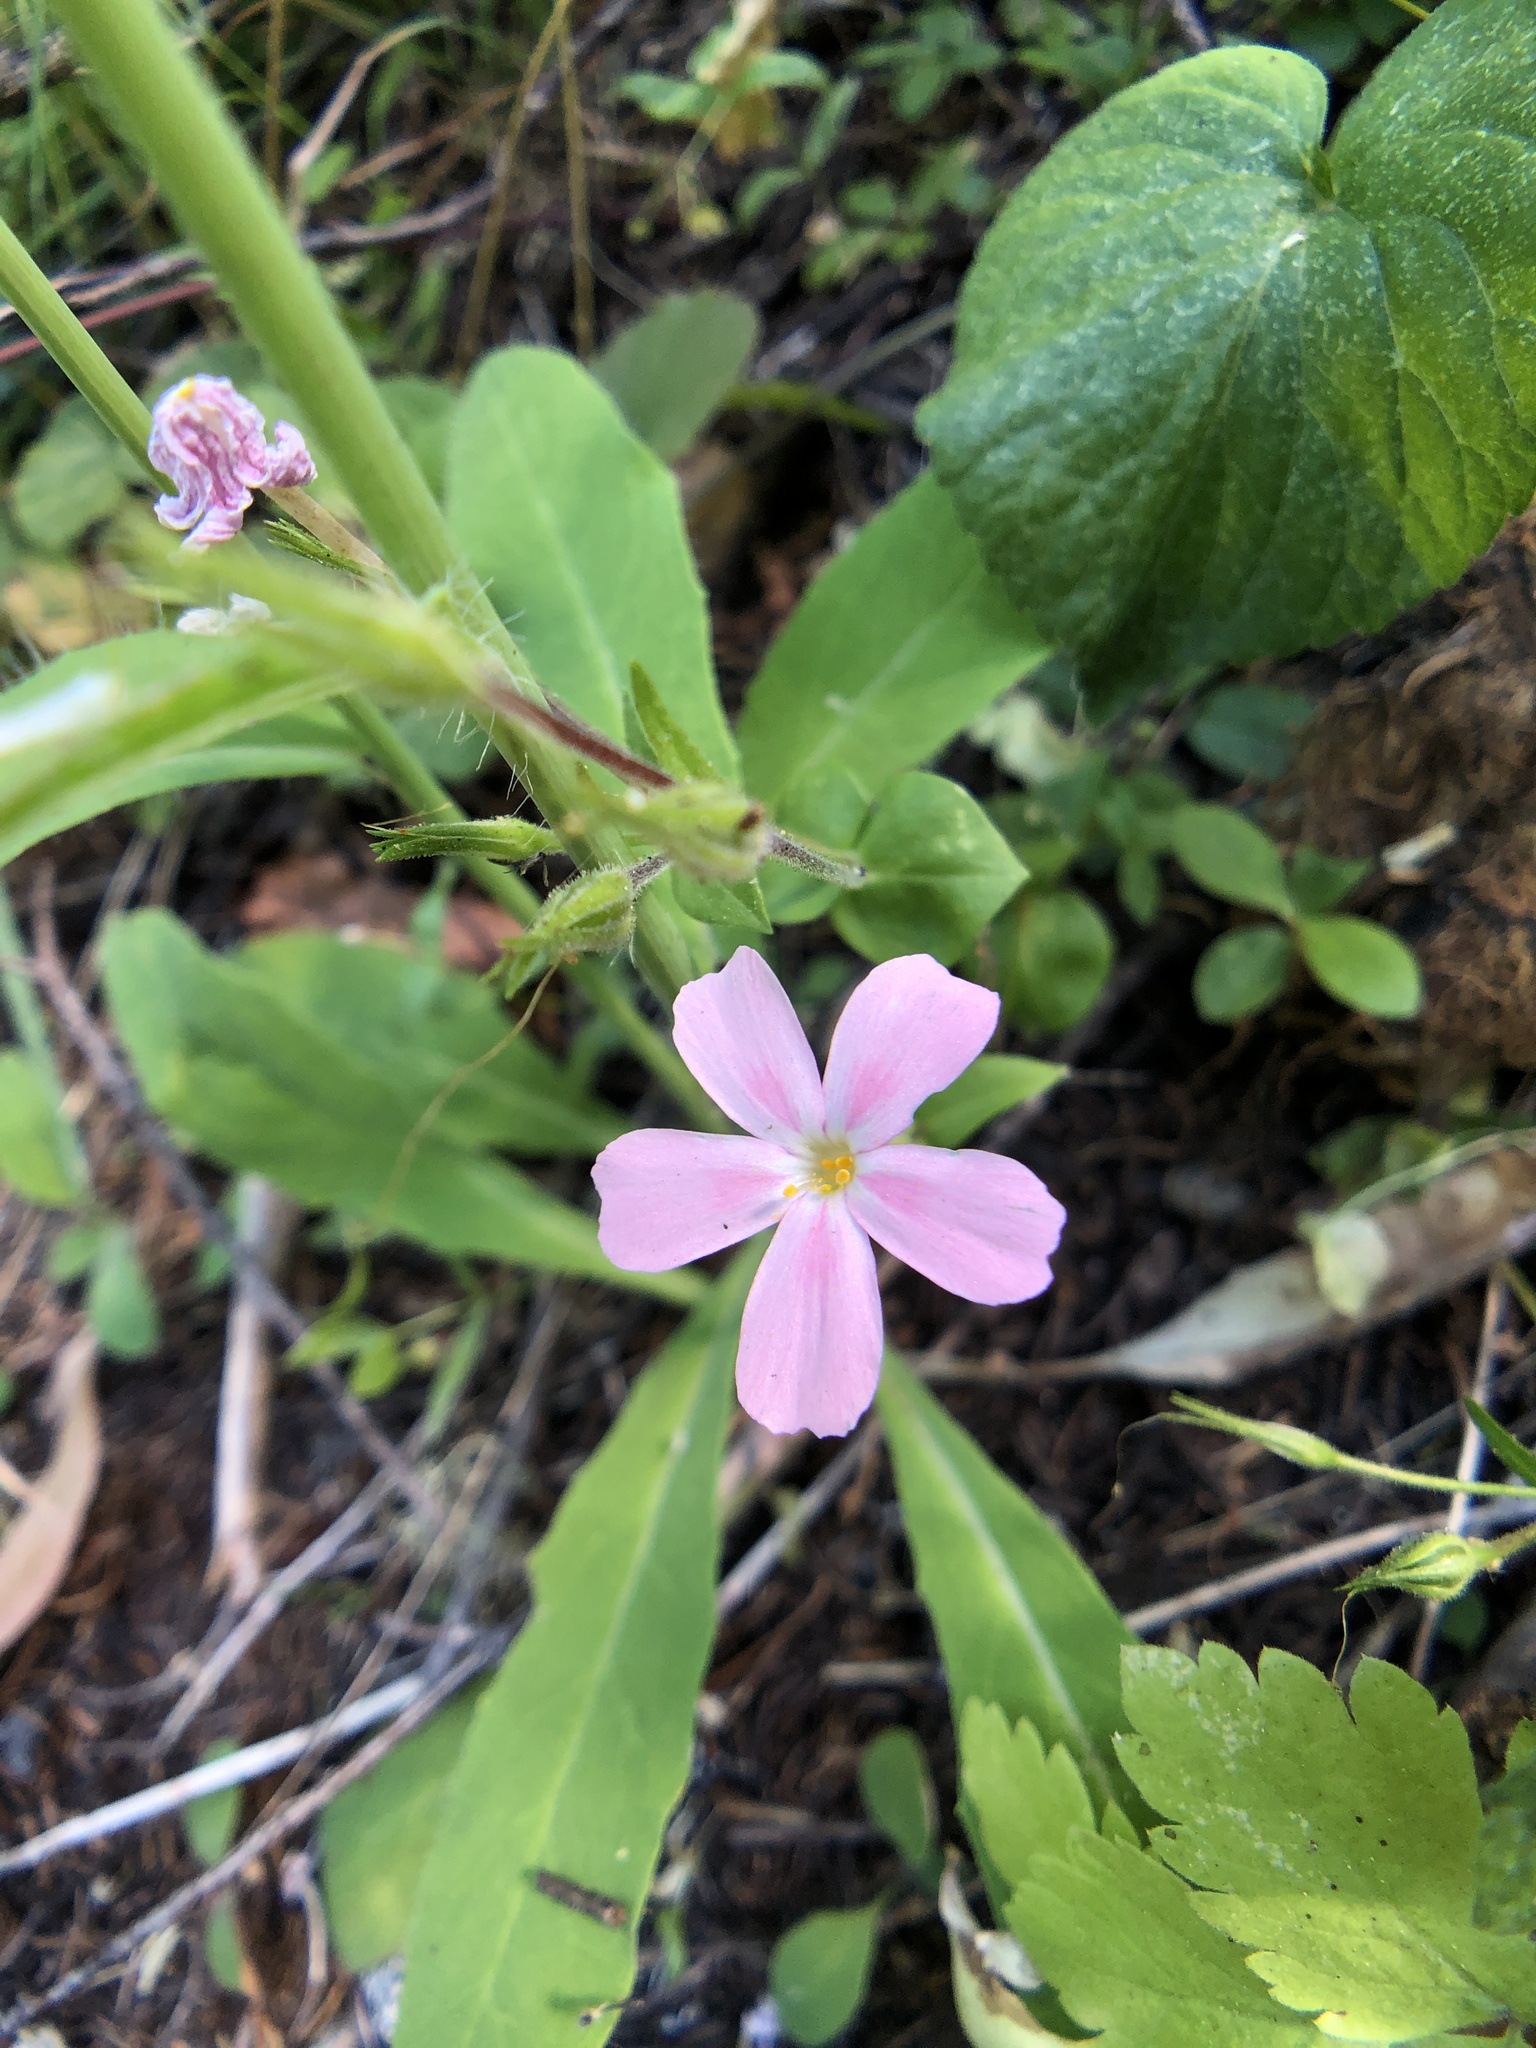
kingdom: Plantae
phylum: Tracheophyta
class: Magnoliopsida
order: Ericales
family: Polemoniaceae
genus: Phlox
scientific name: Phlox adsurgens
